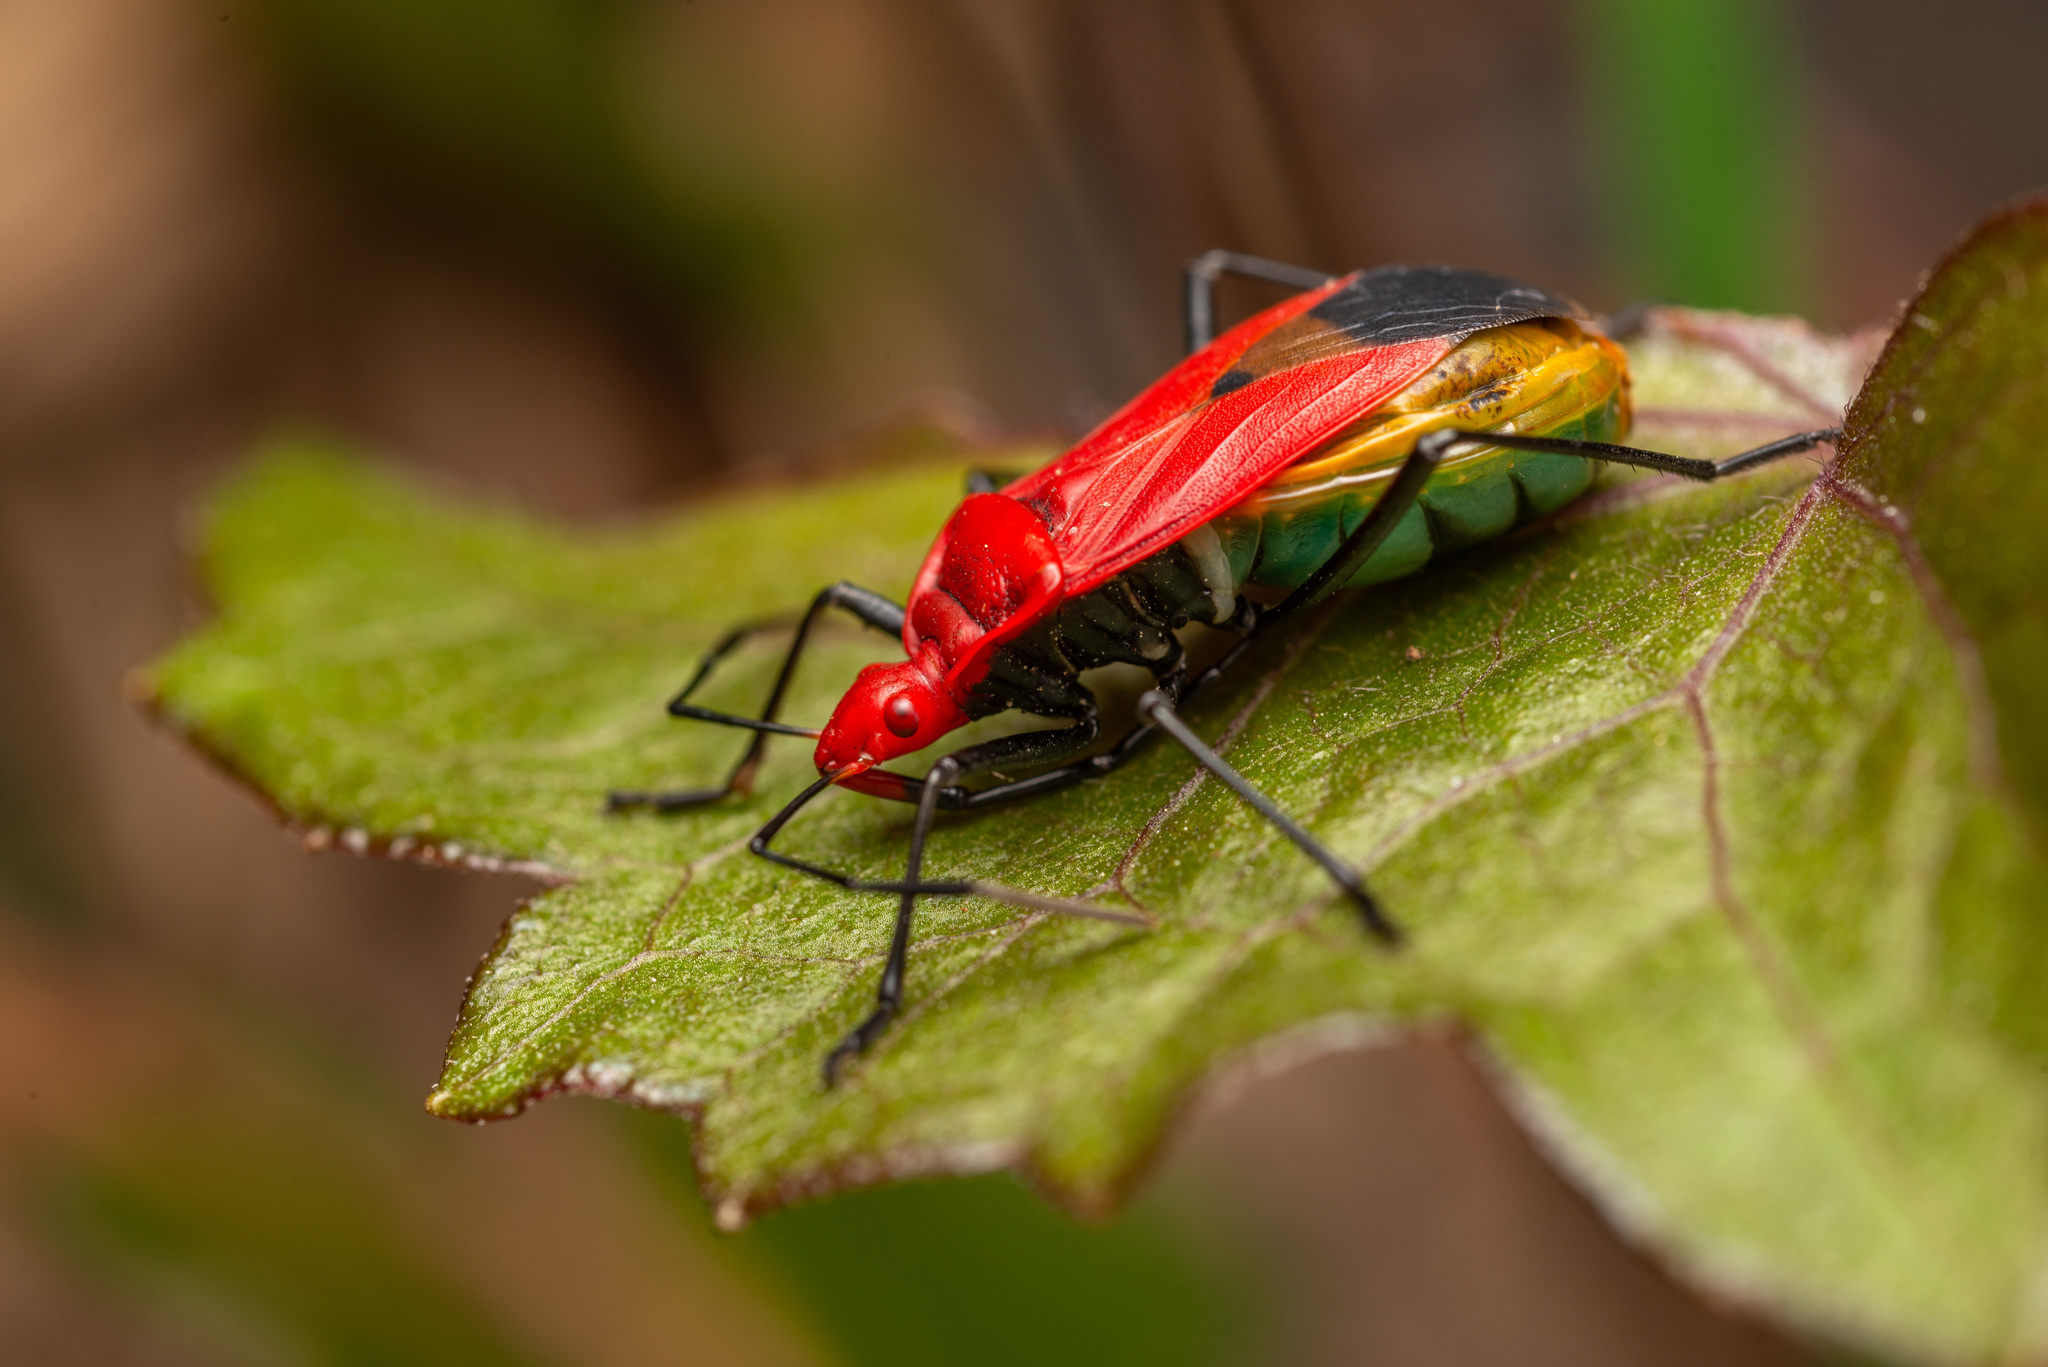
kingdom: Animalia
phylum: Arthropoda
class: Insecta
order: Hemiptera
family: Pyrrhocoridae
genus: Dindymus
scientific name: Dindymus
